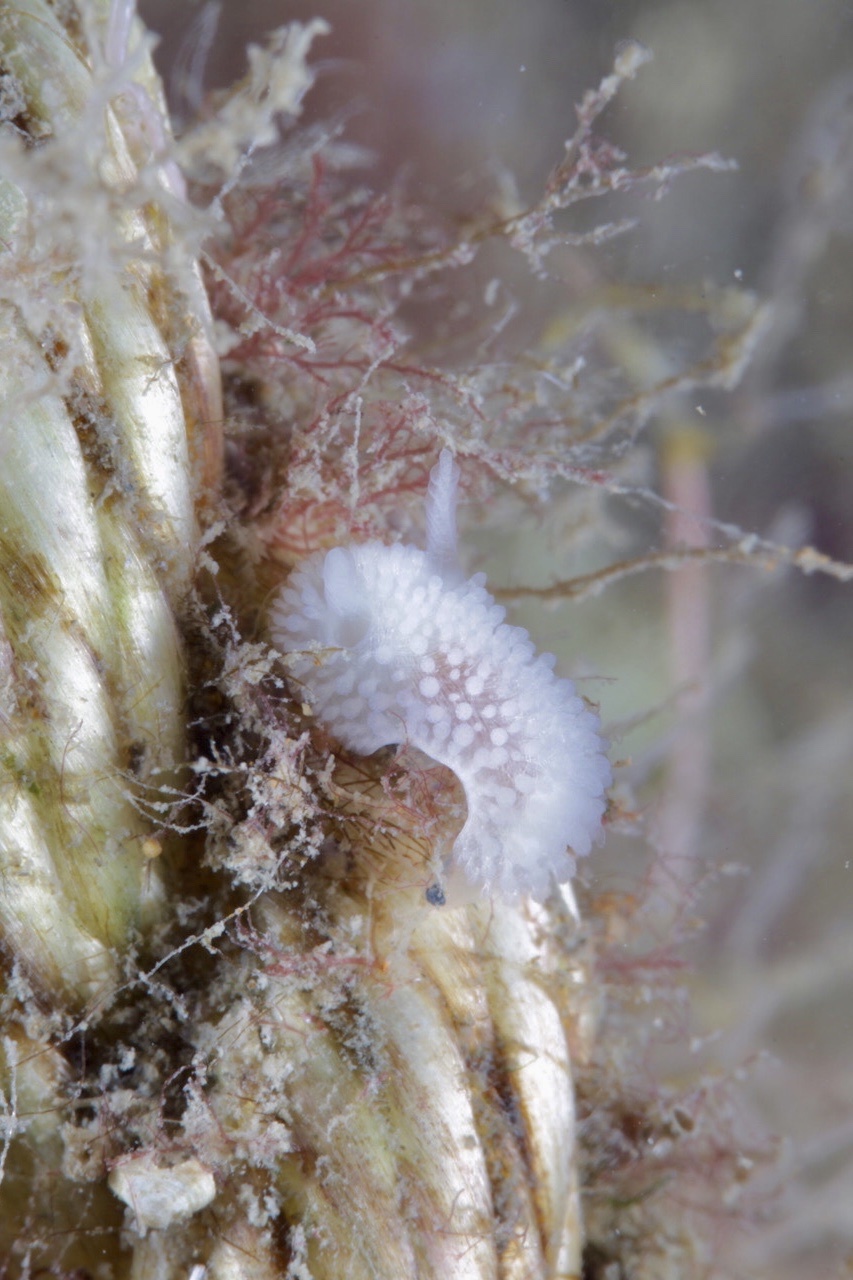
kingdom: Animalia
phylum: Mollusca
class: Gastropoda
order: Nudibranchia
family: Onchidorididae
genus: Onchidoris
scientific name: Onchidoris muricata
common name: Rough doris
